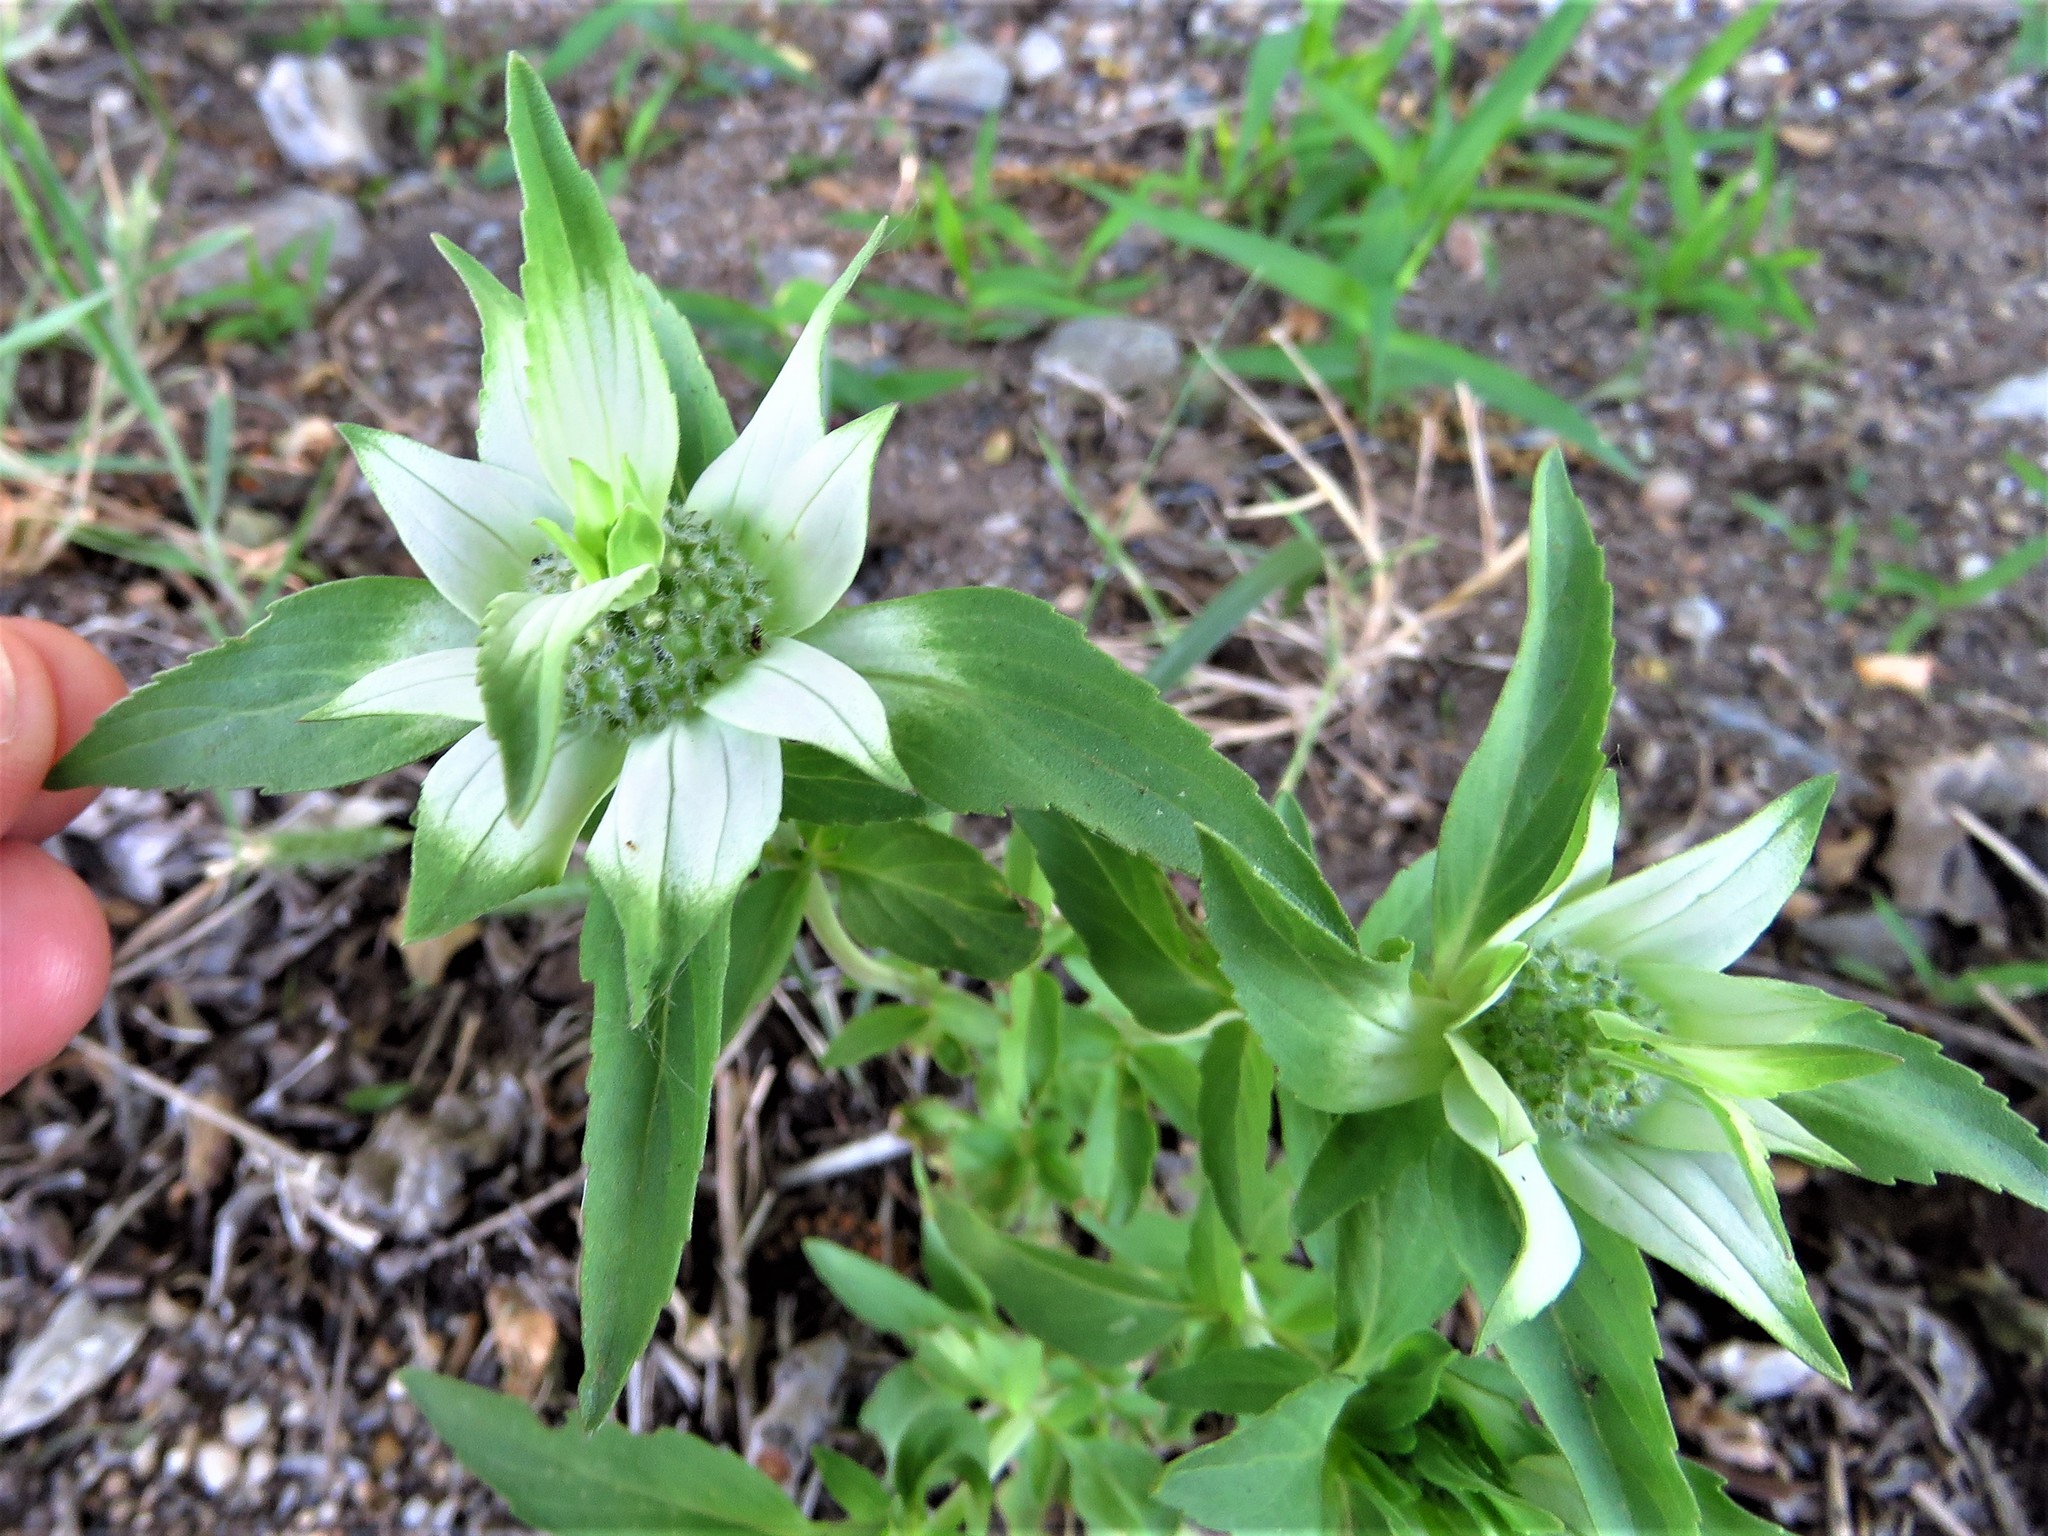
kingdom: Plantae
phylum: Tracheophyta
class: Magnoliopsida
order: Lamiales
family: Lamiaceae
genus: Monarda
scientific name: Monarda punctata
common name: Dotted monarda
